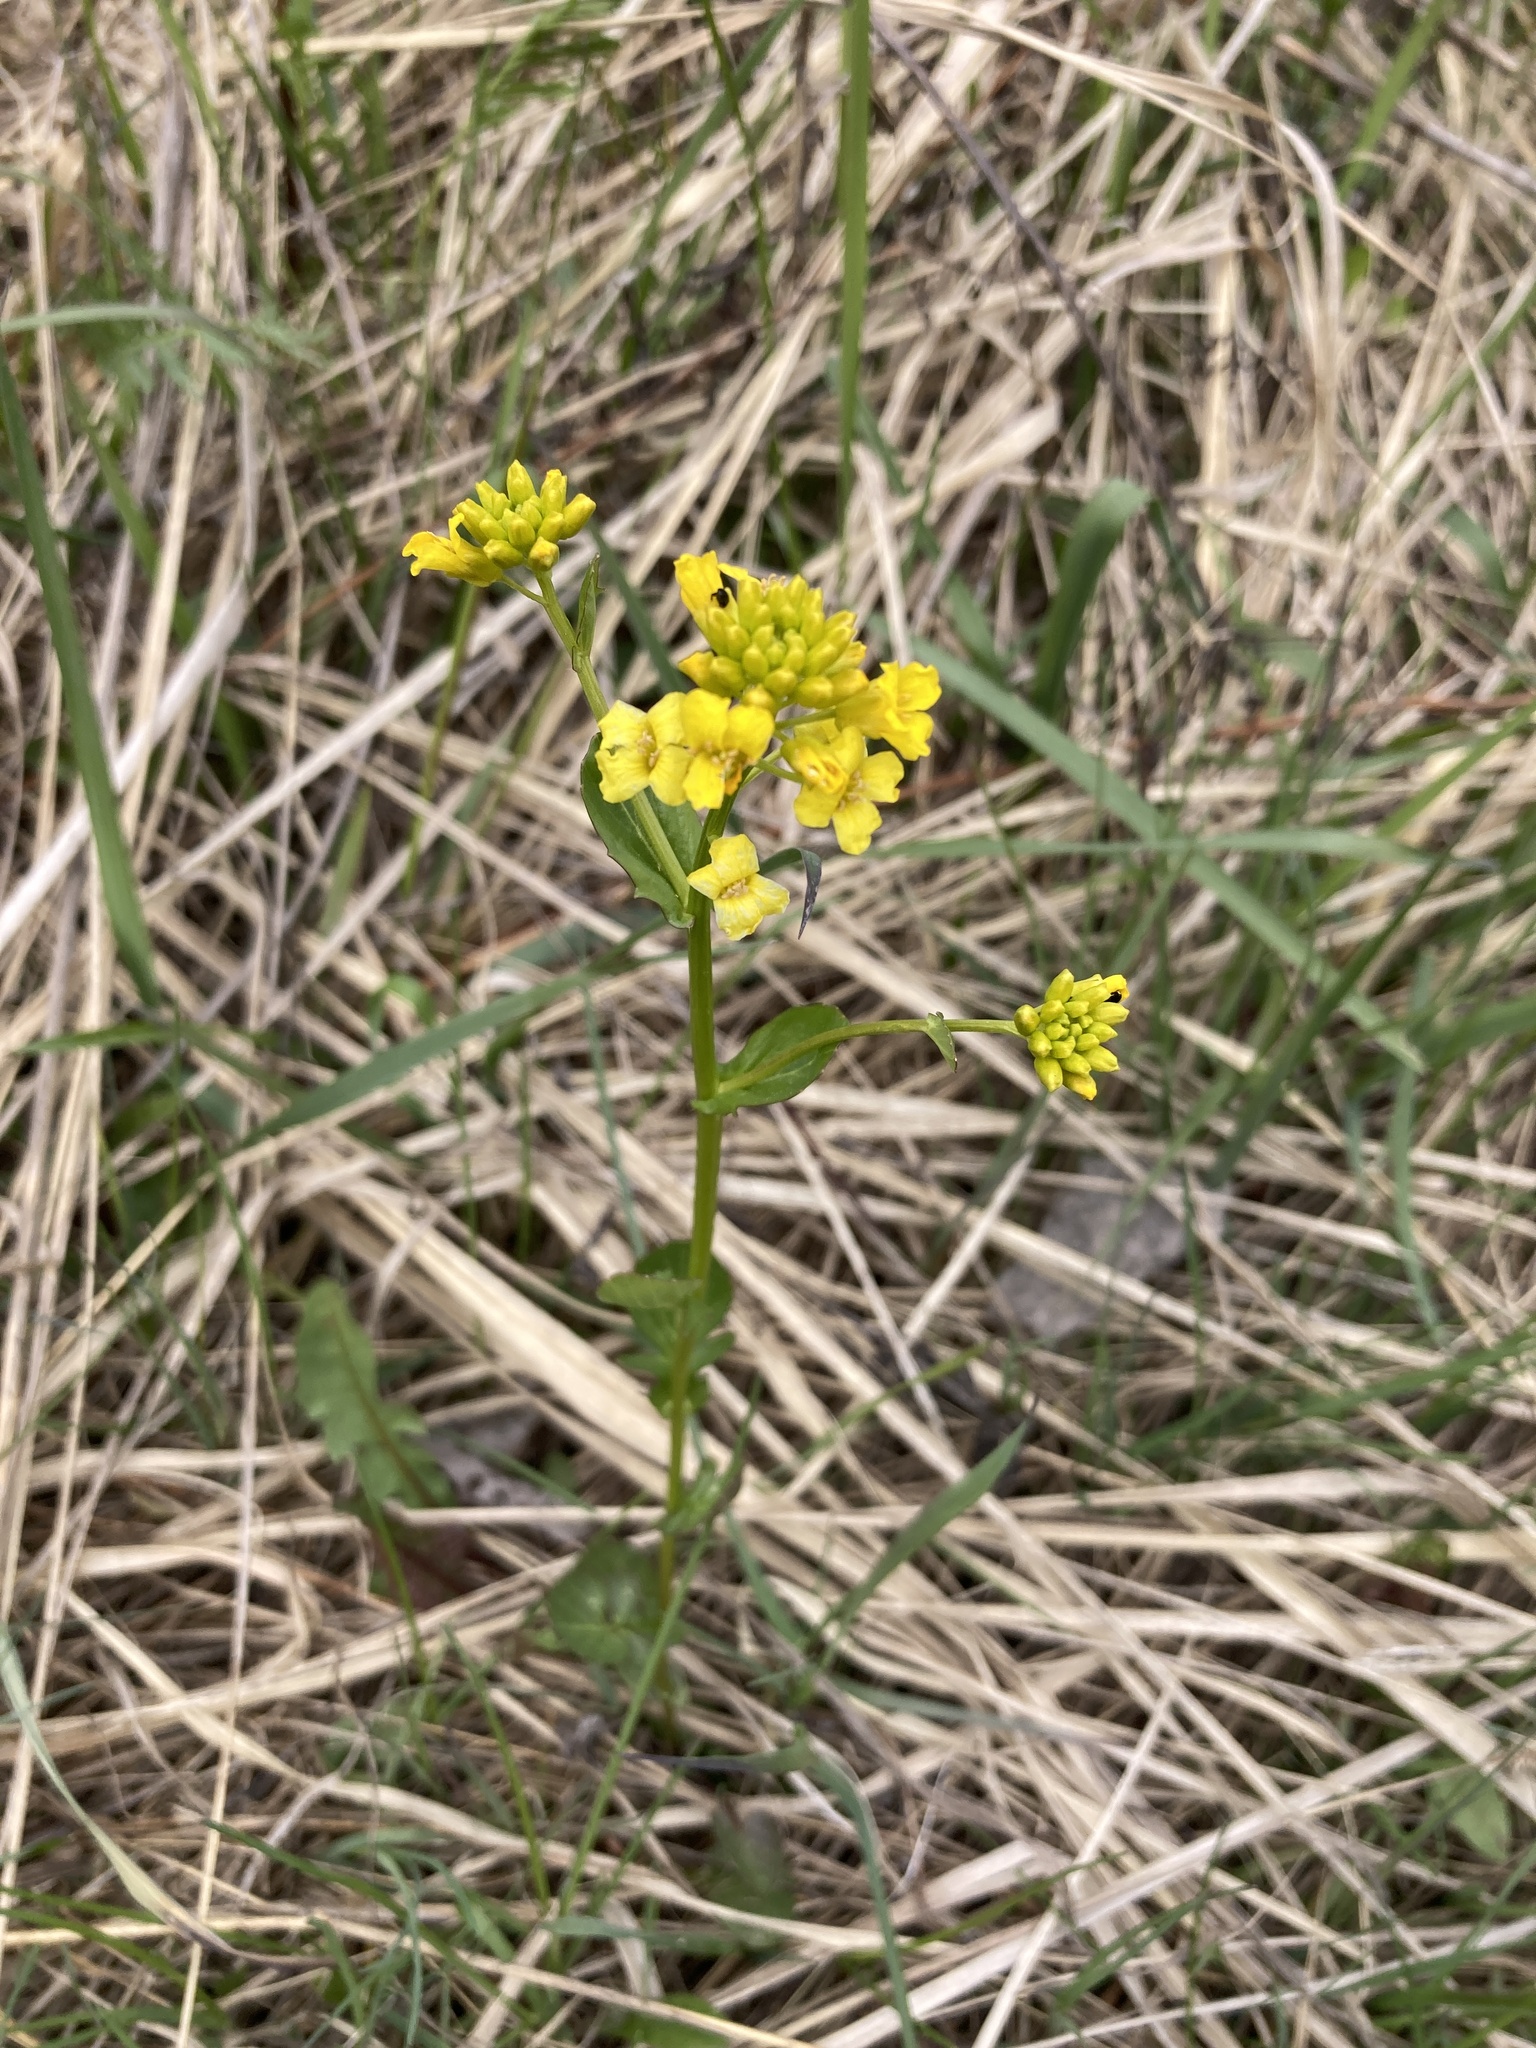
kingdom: Plantae
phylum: Tracheophyta
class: Magnoliopsida
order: Brassicales
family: Brassicaceae
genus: Barbarea
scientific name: Barbarea vulgaris
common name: Cressy-greens
